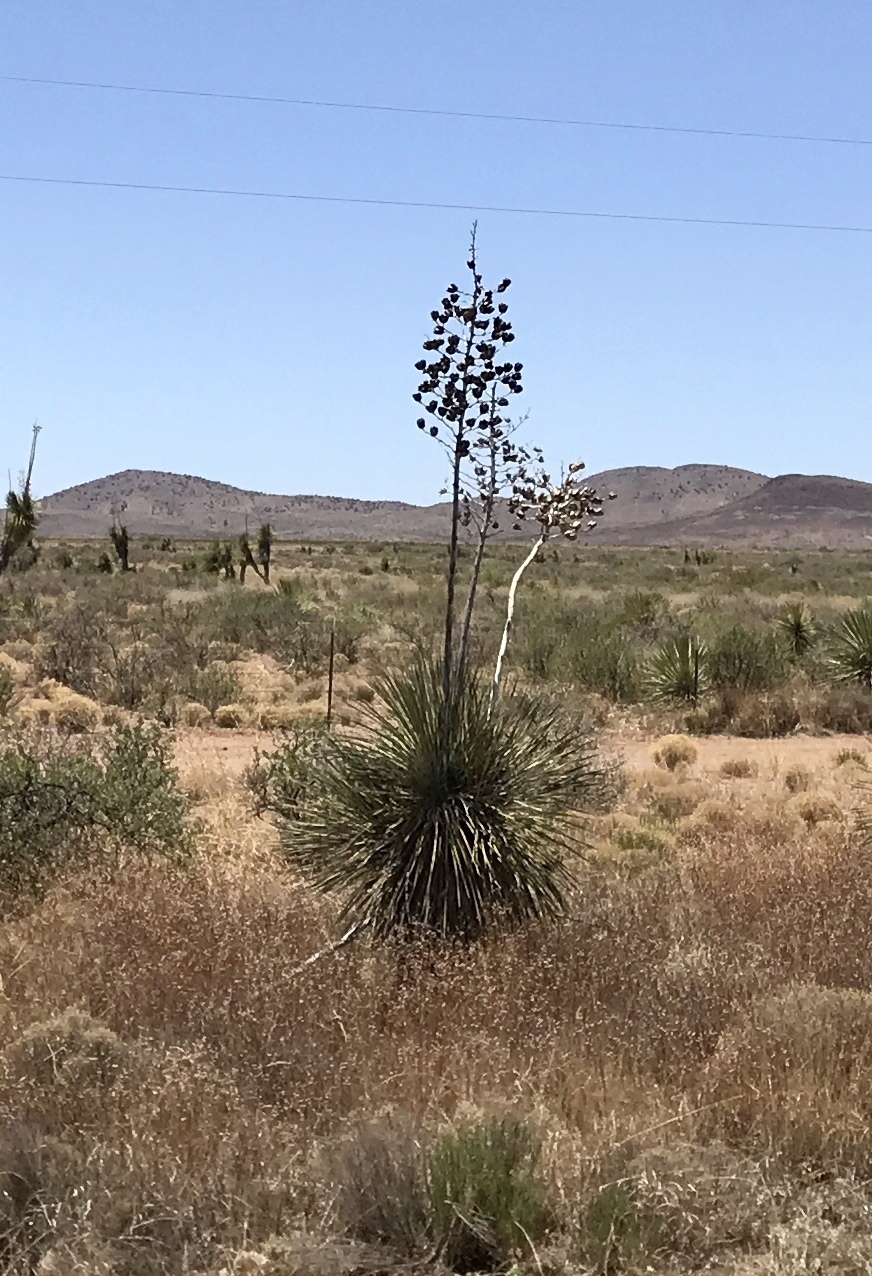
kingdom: Plantae
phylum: Tracheophyta
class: Liliopsida
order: Asparagales
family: Asparagaceae
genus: Yucca
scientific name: Yucca elata
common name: Palmella
